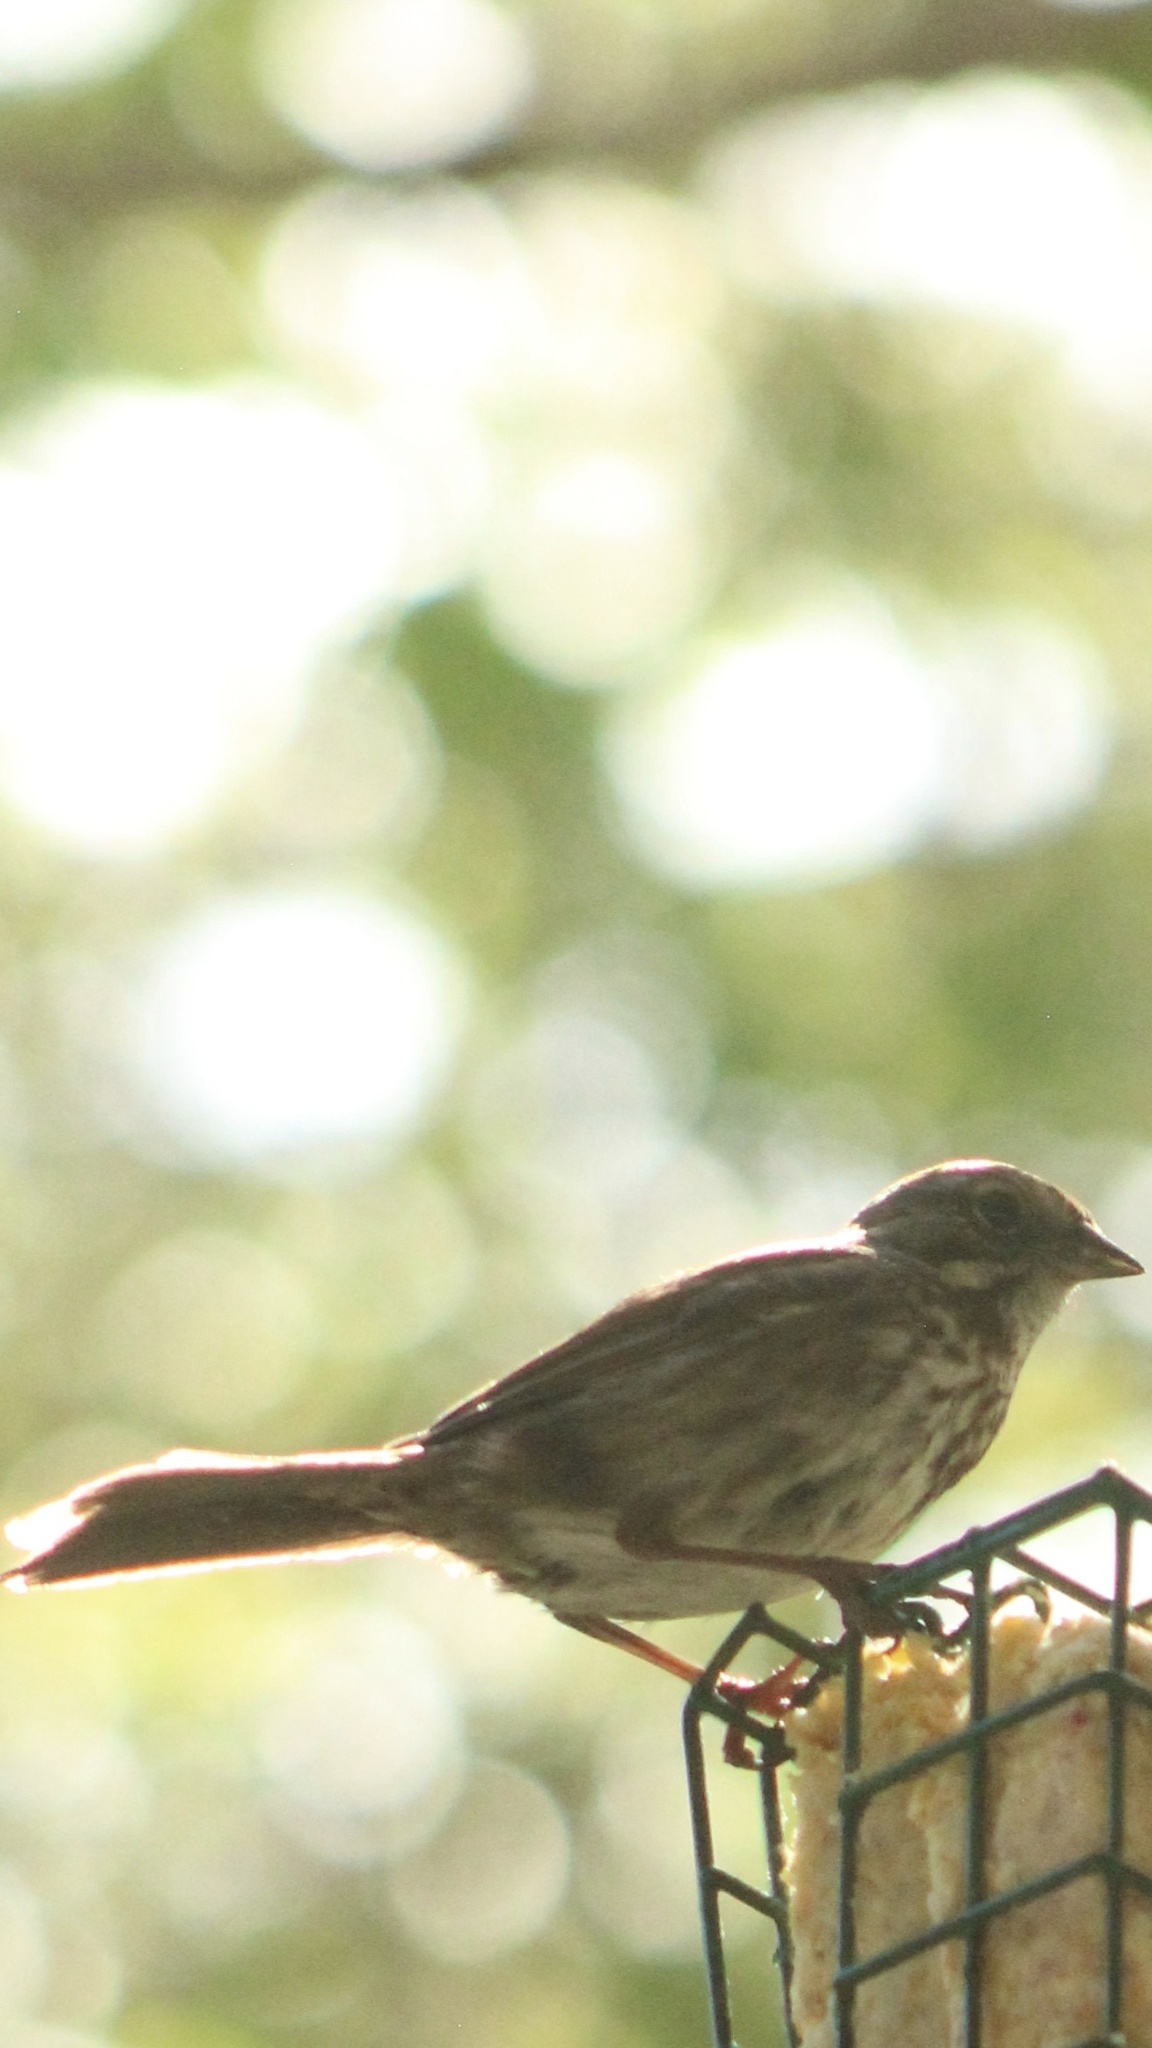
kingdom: Animalia
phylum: Chordata
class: Aves
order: Passeriformes
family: Passerellidae
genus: Melospiza
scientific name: Melospiza melodia
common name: Song sparrow
